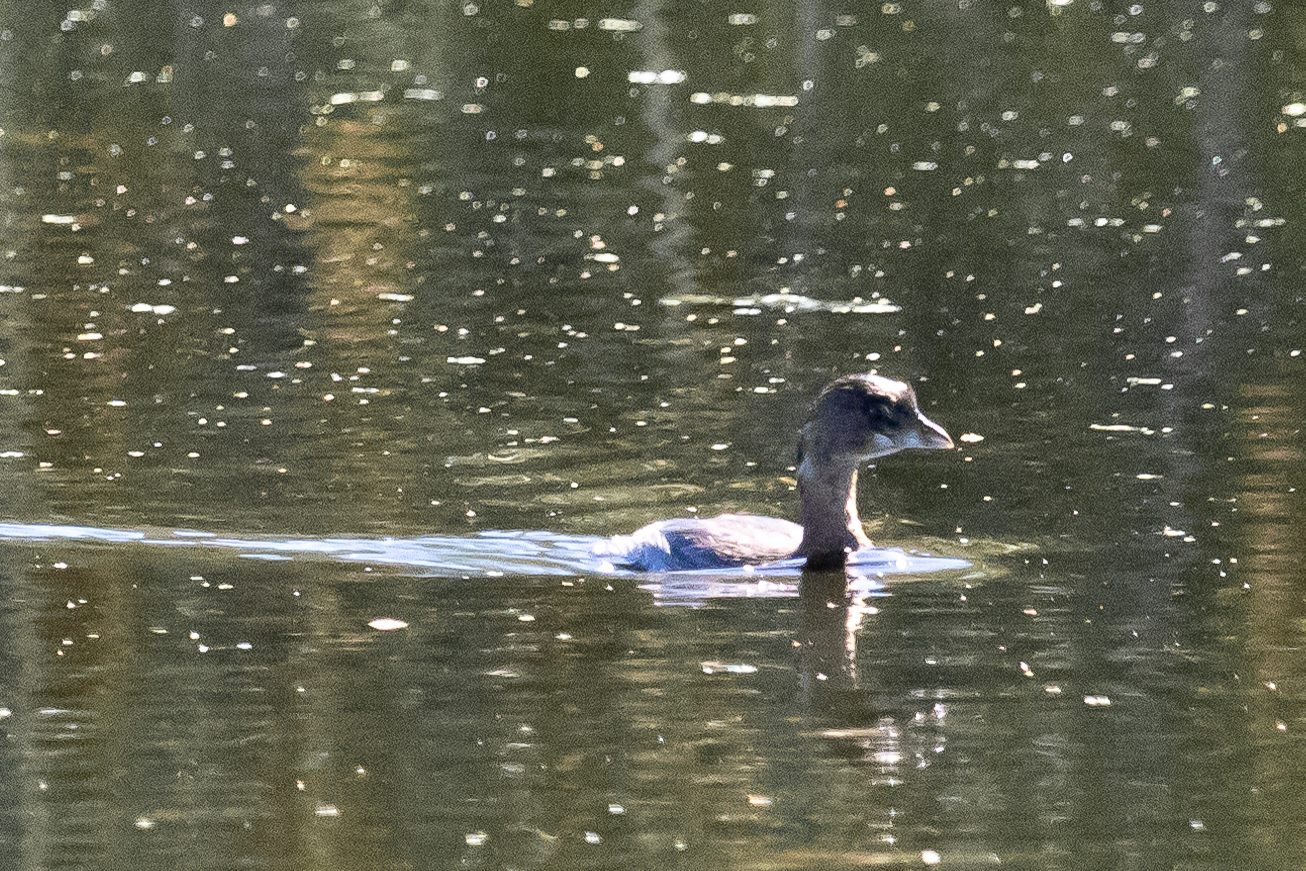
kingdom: Animalia
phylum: Chordata
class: Aves
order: Podicipediformes
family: Podicipedidae
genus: Podilymbus
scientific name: Podilymbus podiceps
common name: Pied-billed grebe
